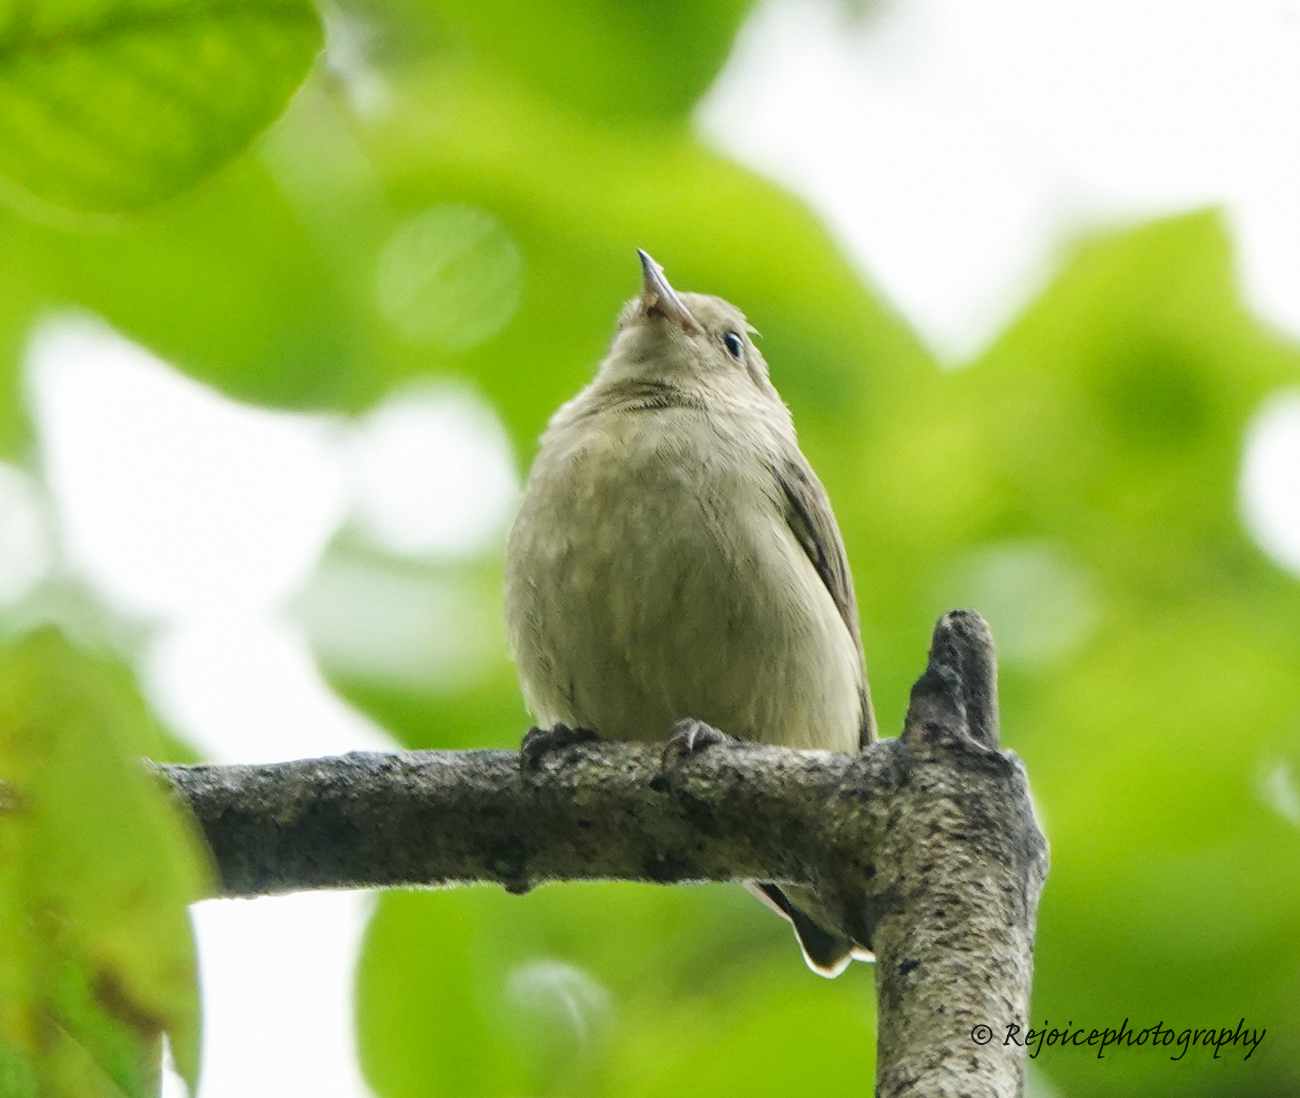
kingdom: Animalia
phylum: Chordata
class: Aves
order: Passeriformes
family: Dicaeidae
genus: Dicaeum
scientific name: Dicaeum minullum
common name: Plain flowerpecker
